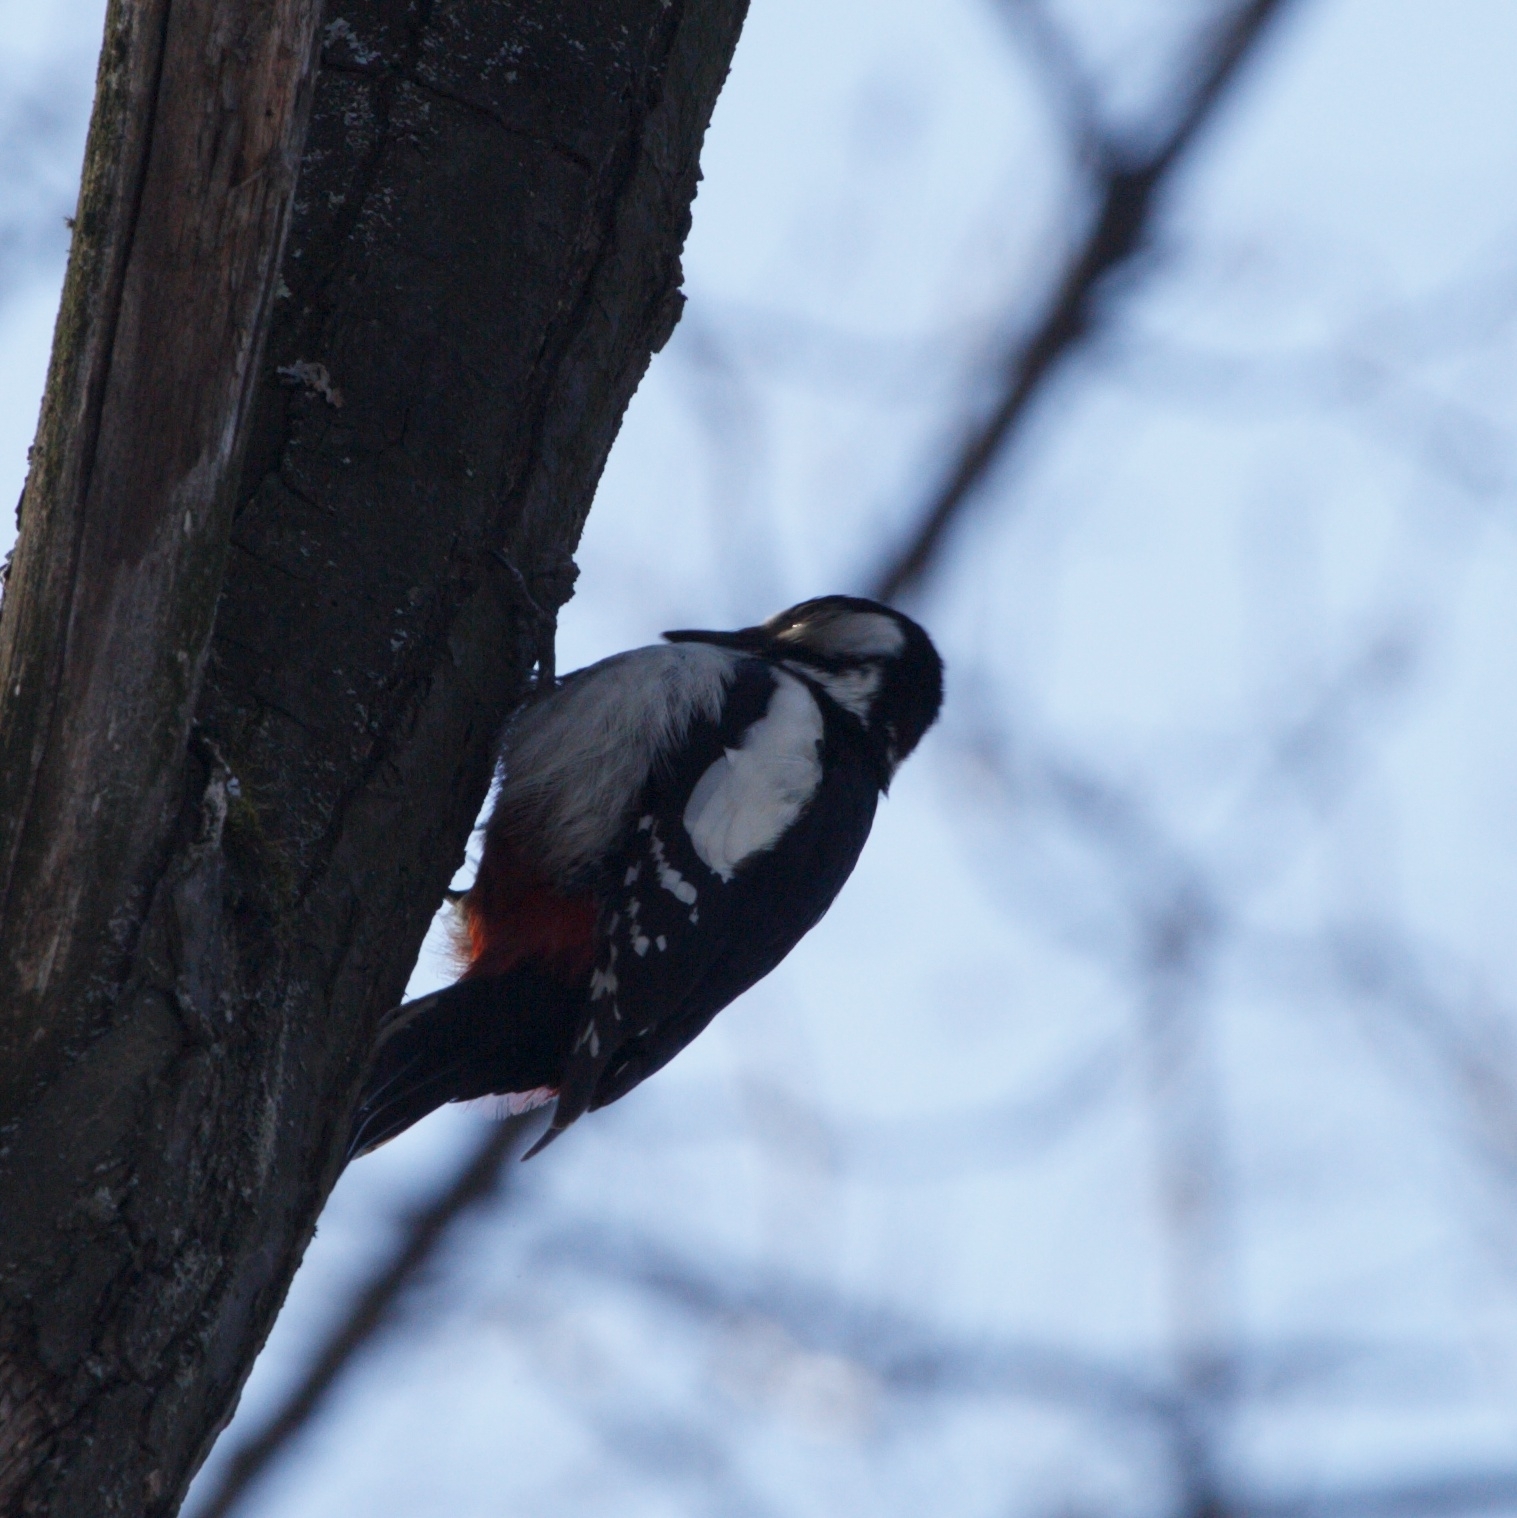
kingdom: Animalia
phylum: Chordata
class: Aves
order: Piciformes
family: Picidae
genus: Dendrocopos
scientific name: Dendrocopos major
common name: Great spotted woodpecker
